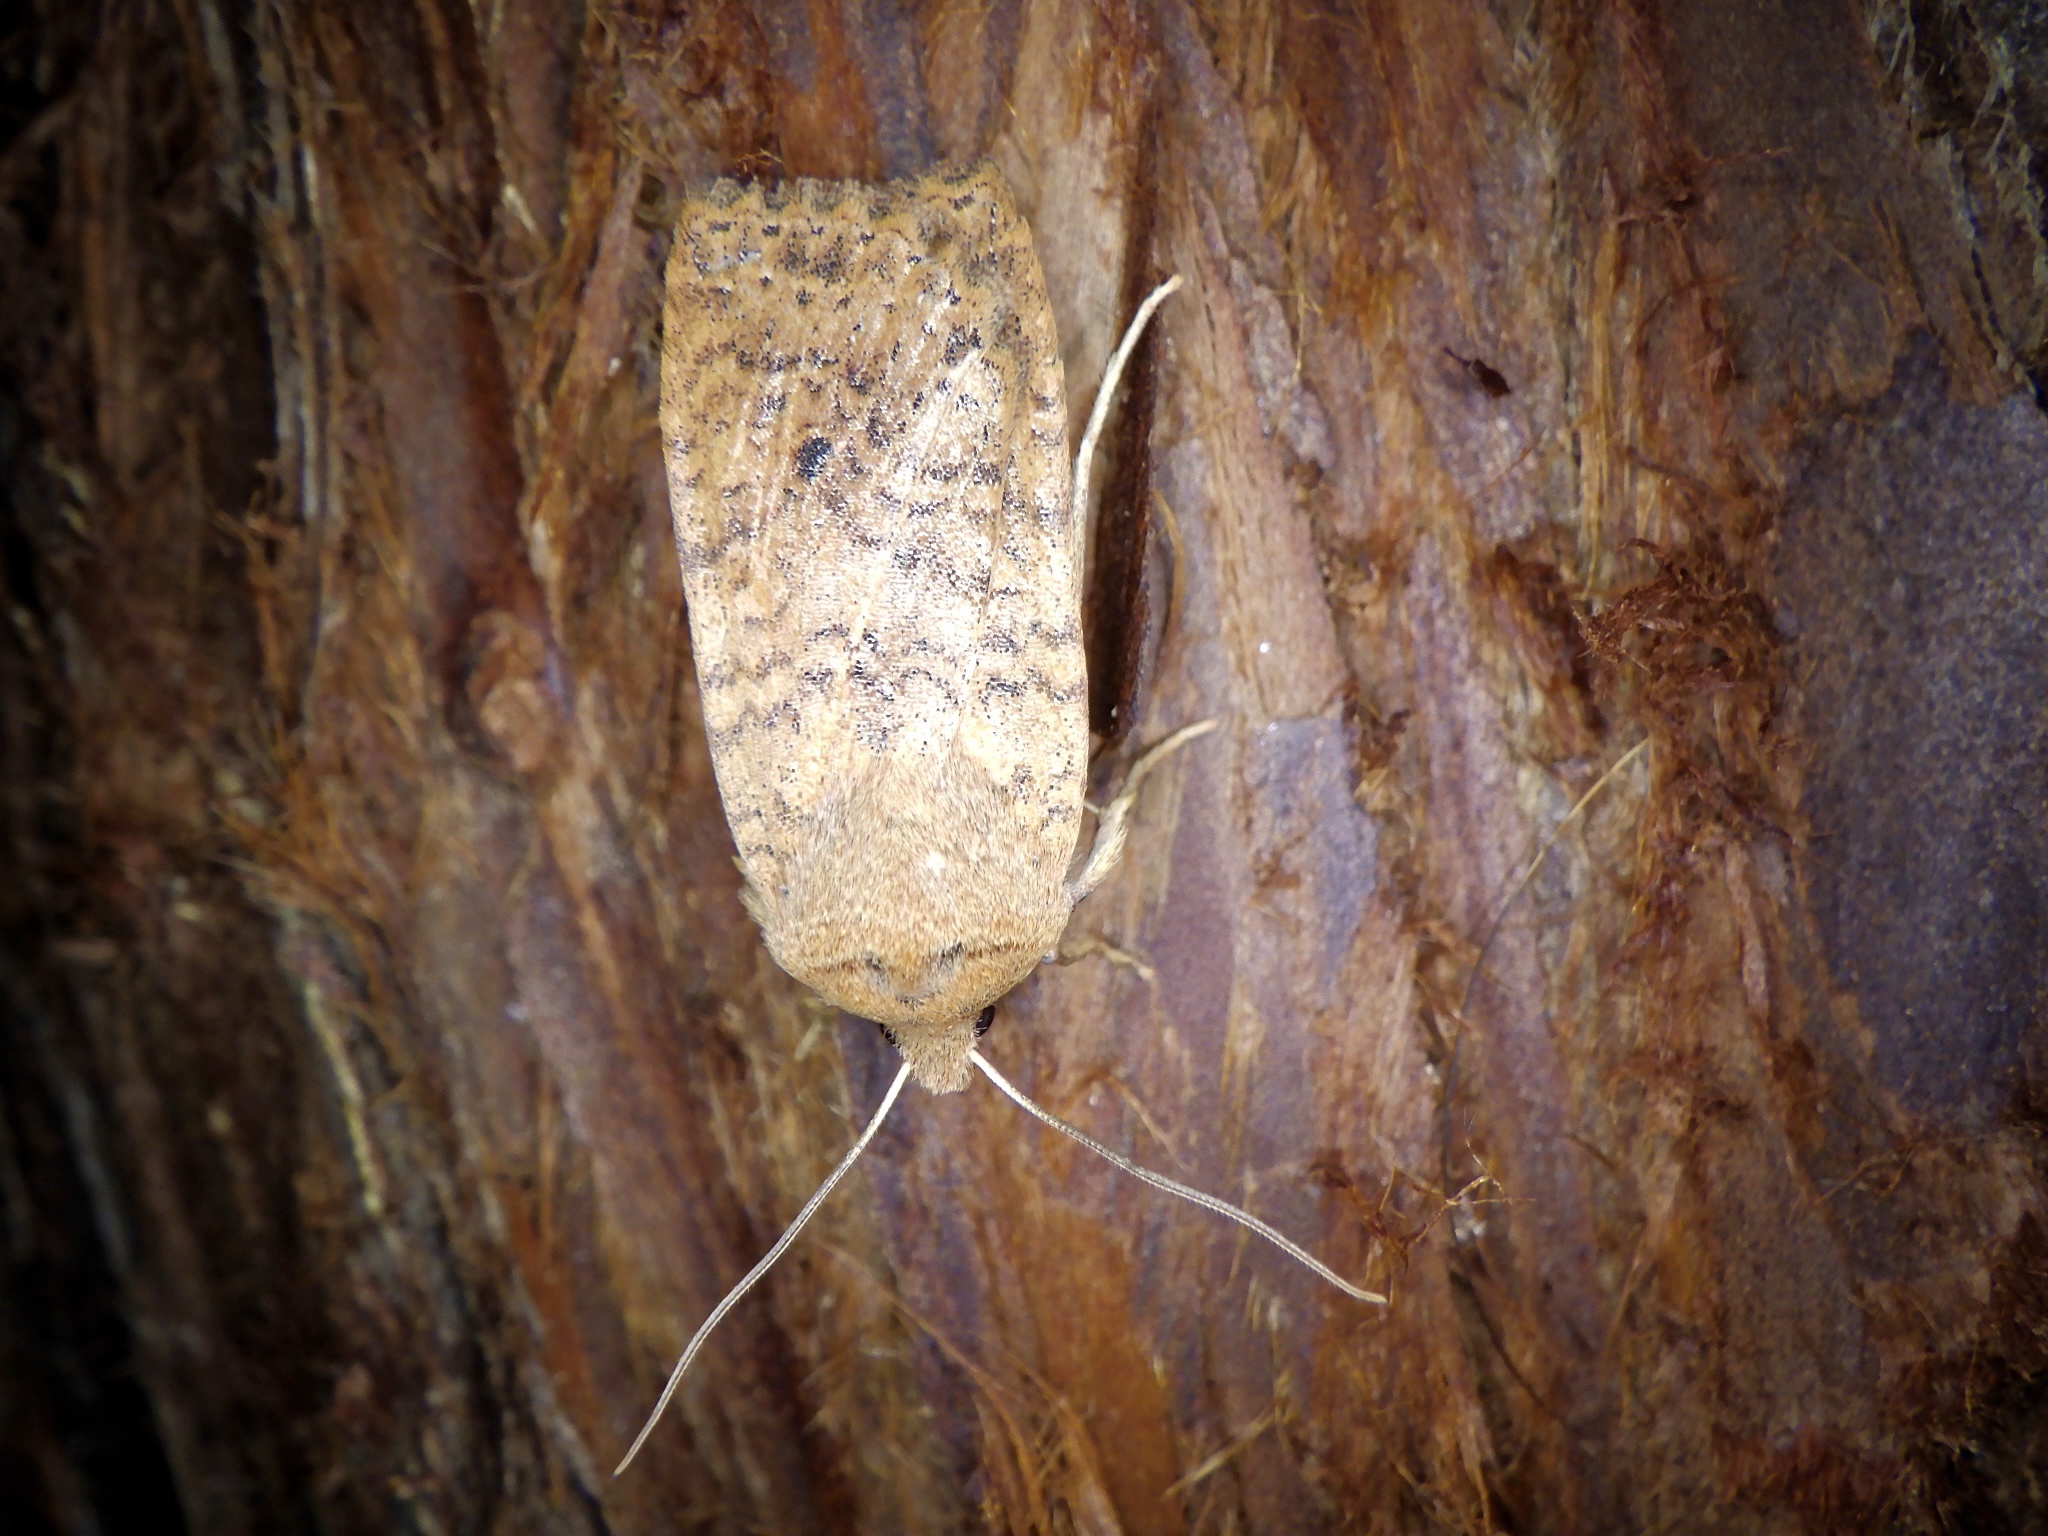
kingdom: Animalia
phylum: Arthropoda
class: Insecta
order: Lepidoptera
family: Noctuidae
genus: Conistra
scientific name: Conistra albipuncta
